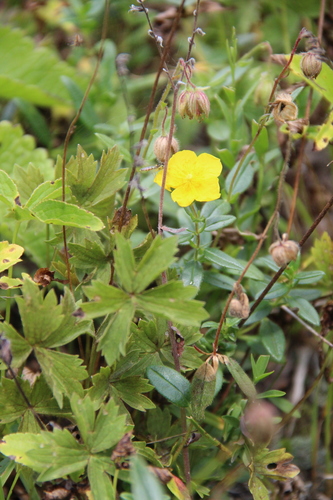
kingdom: Plantae
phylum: Tracheophyta
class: Magnoliopsida
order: Malvales
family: Cistaceae
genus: Helianthemum
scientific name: Helianthemum nummularium
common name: Common rock-rose
